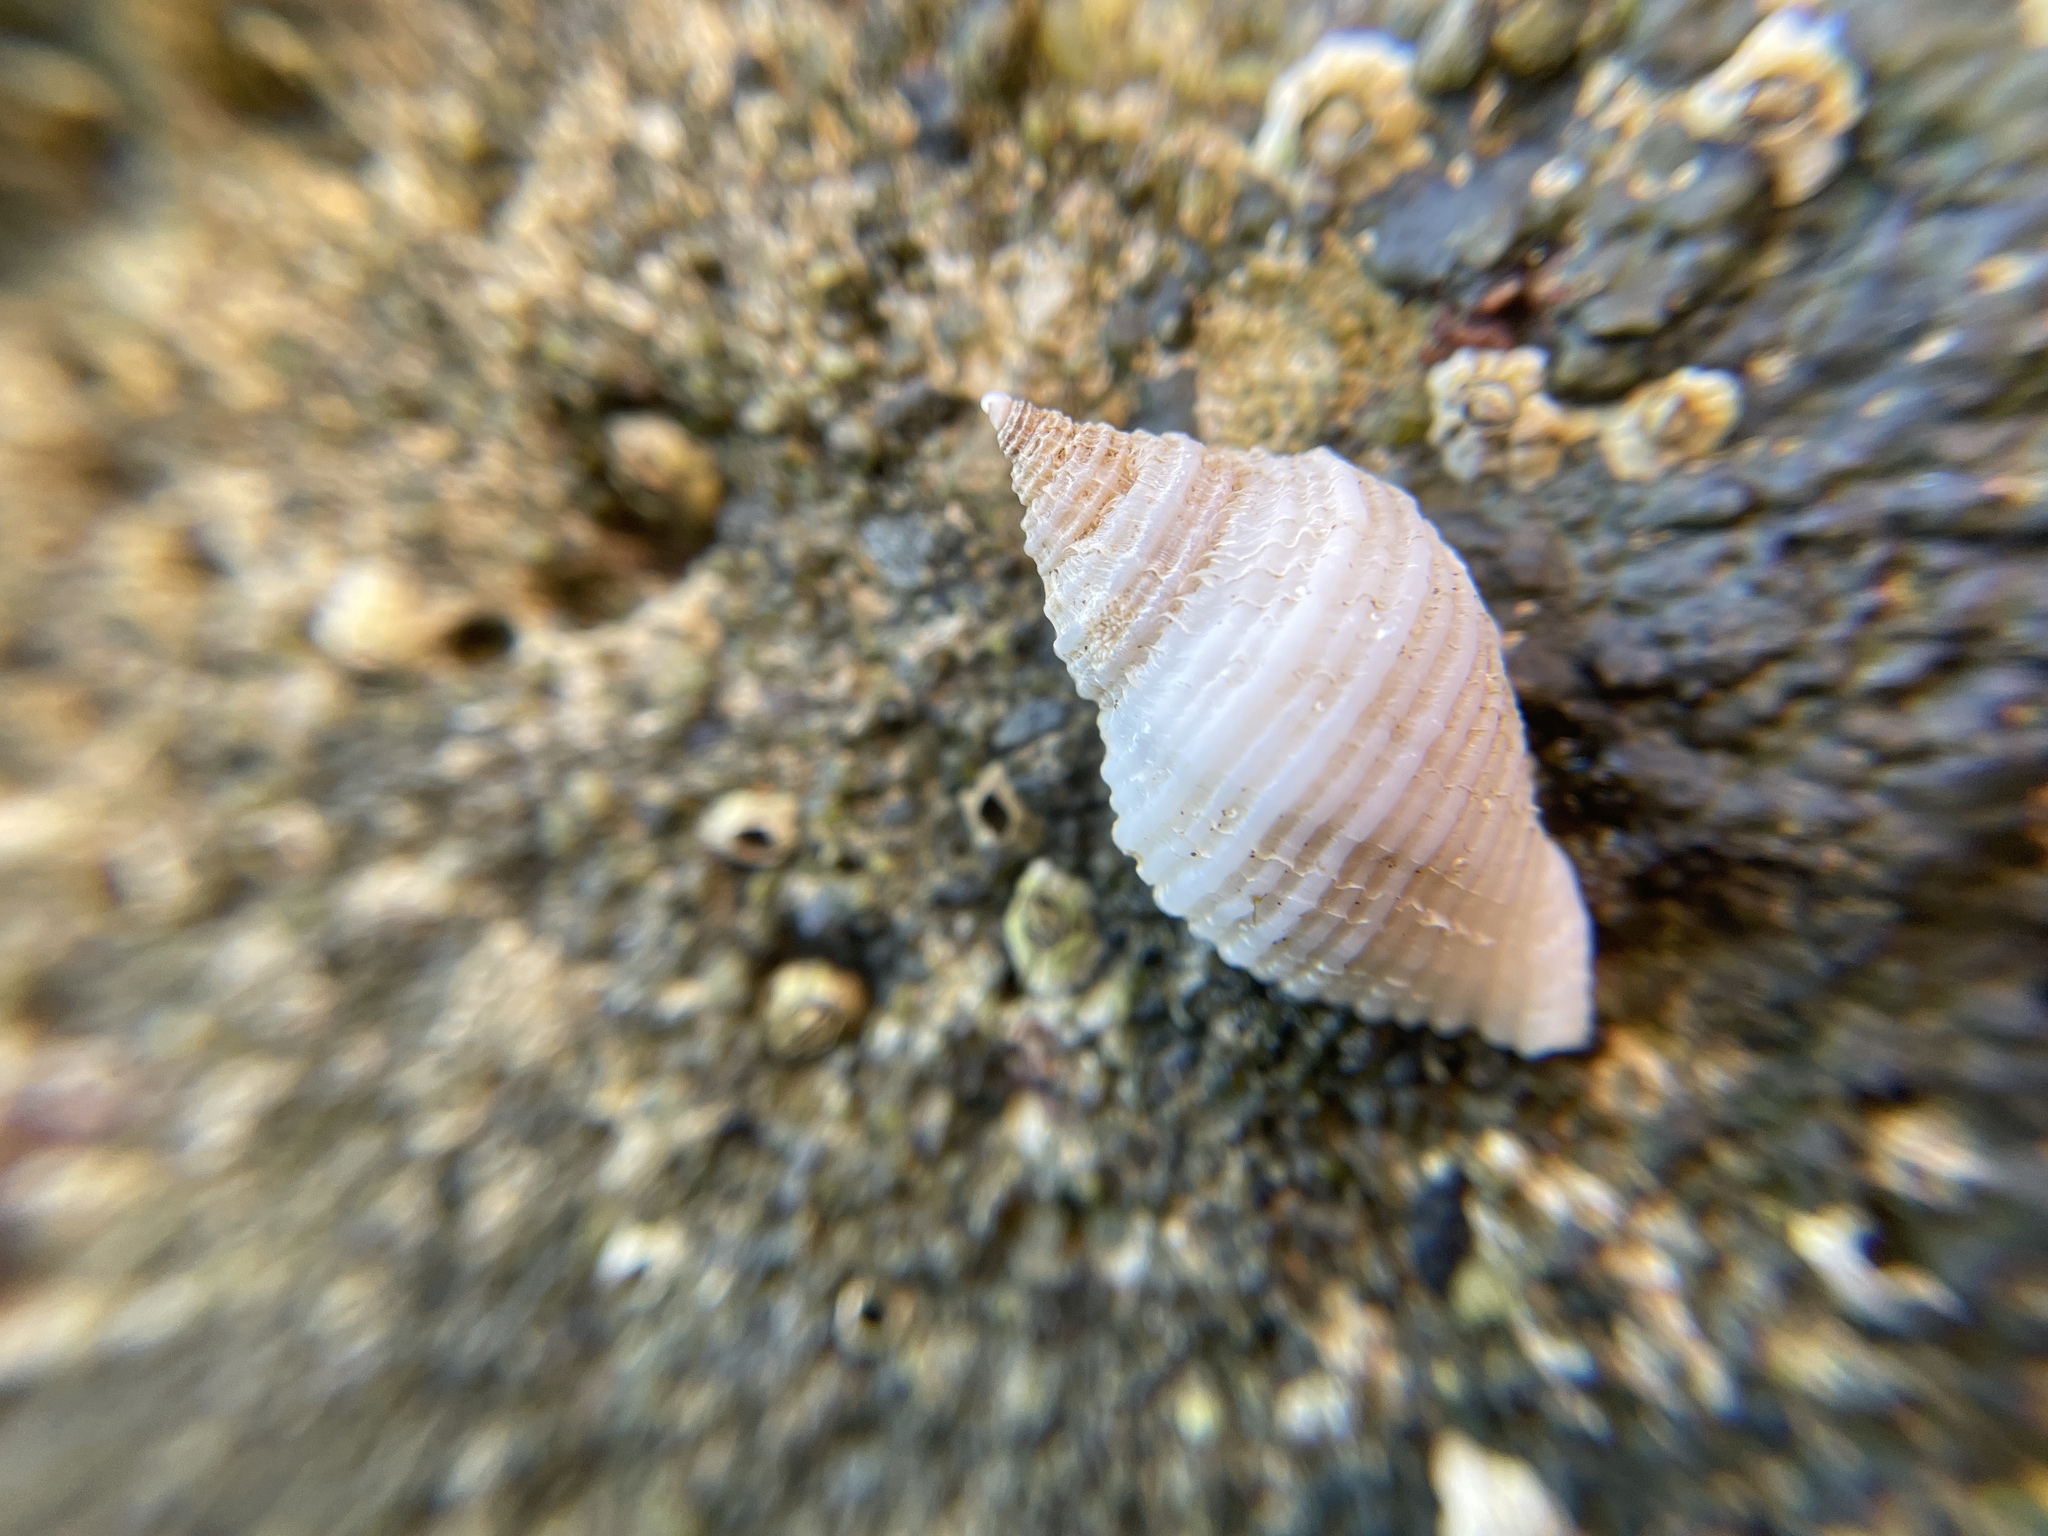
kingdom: Animalia
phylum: Mollusca
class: Gastropoda
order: Neogastropoda
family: Muricidae
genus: Nucella
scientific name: Nucella lapillus
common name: Dog whelk
